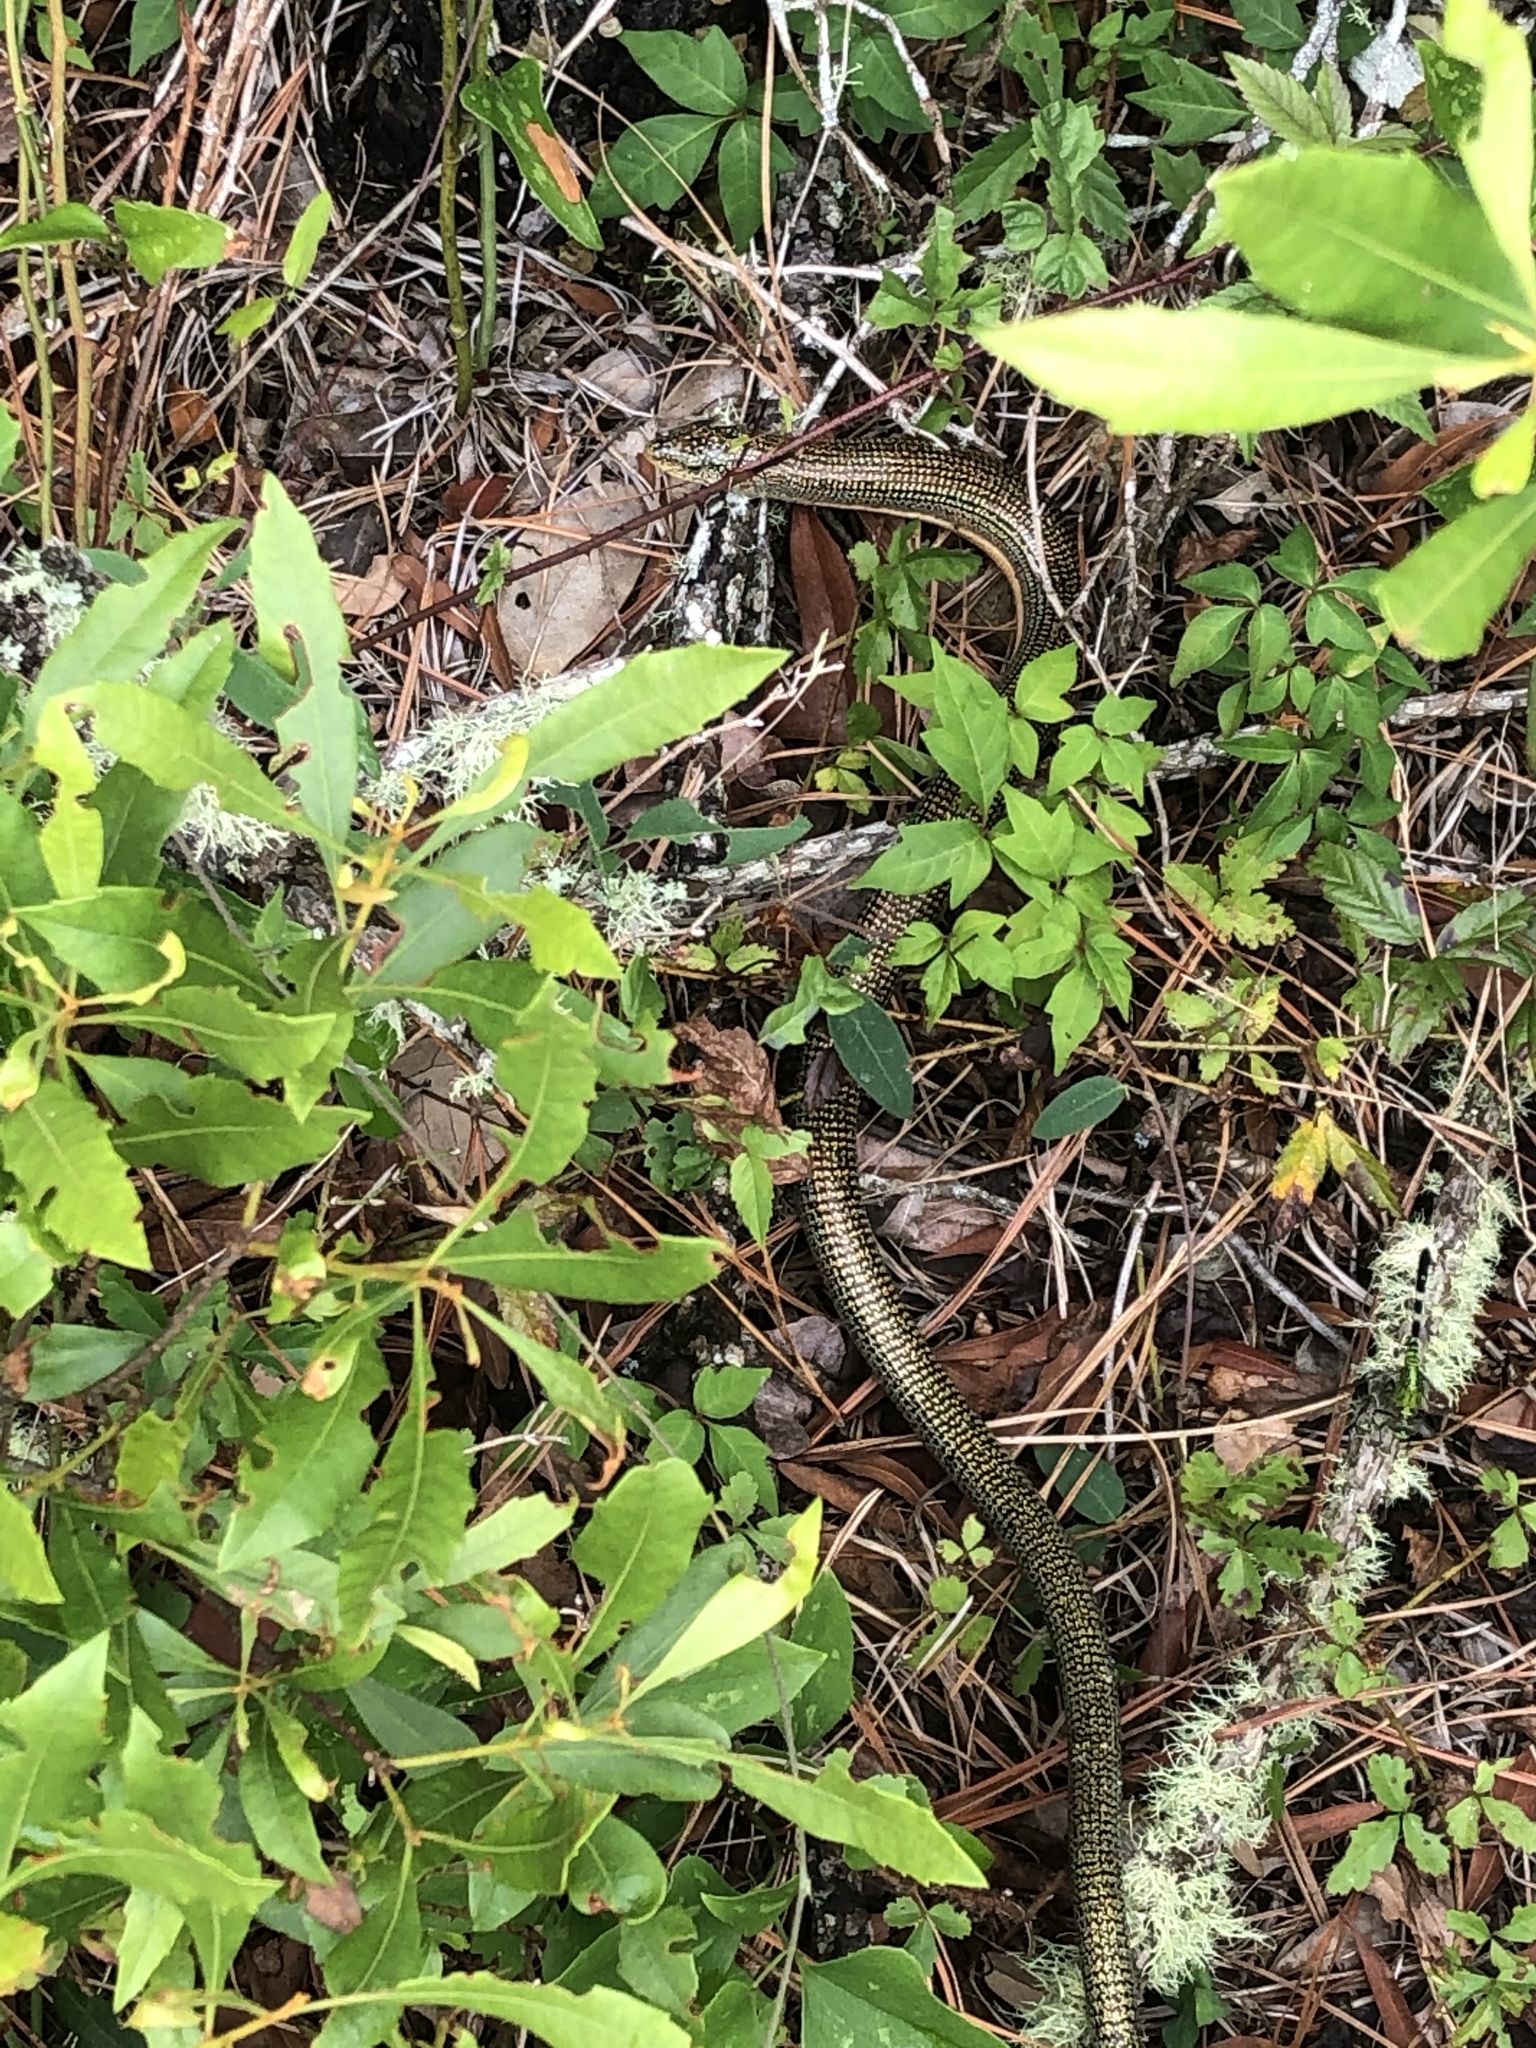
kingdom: Animalia
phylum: Chordata
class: Squamata
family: Anguidae
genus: Ophisaurus
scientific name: Ophisaurus ventralis
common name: Eastern glass lizard
